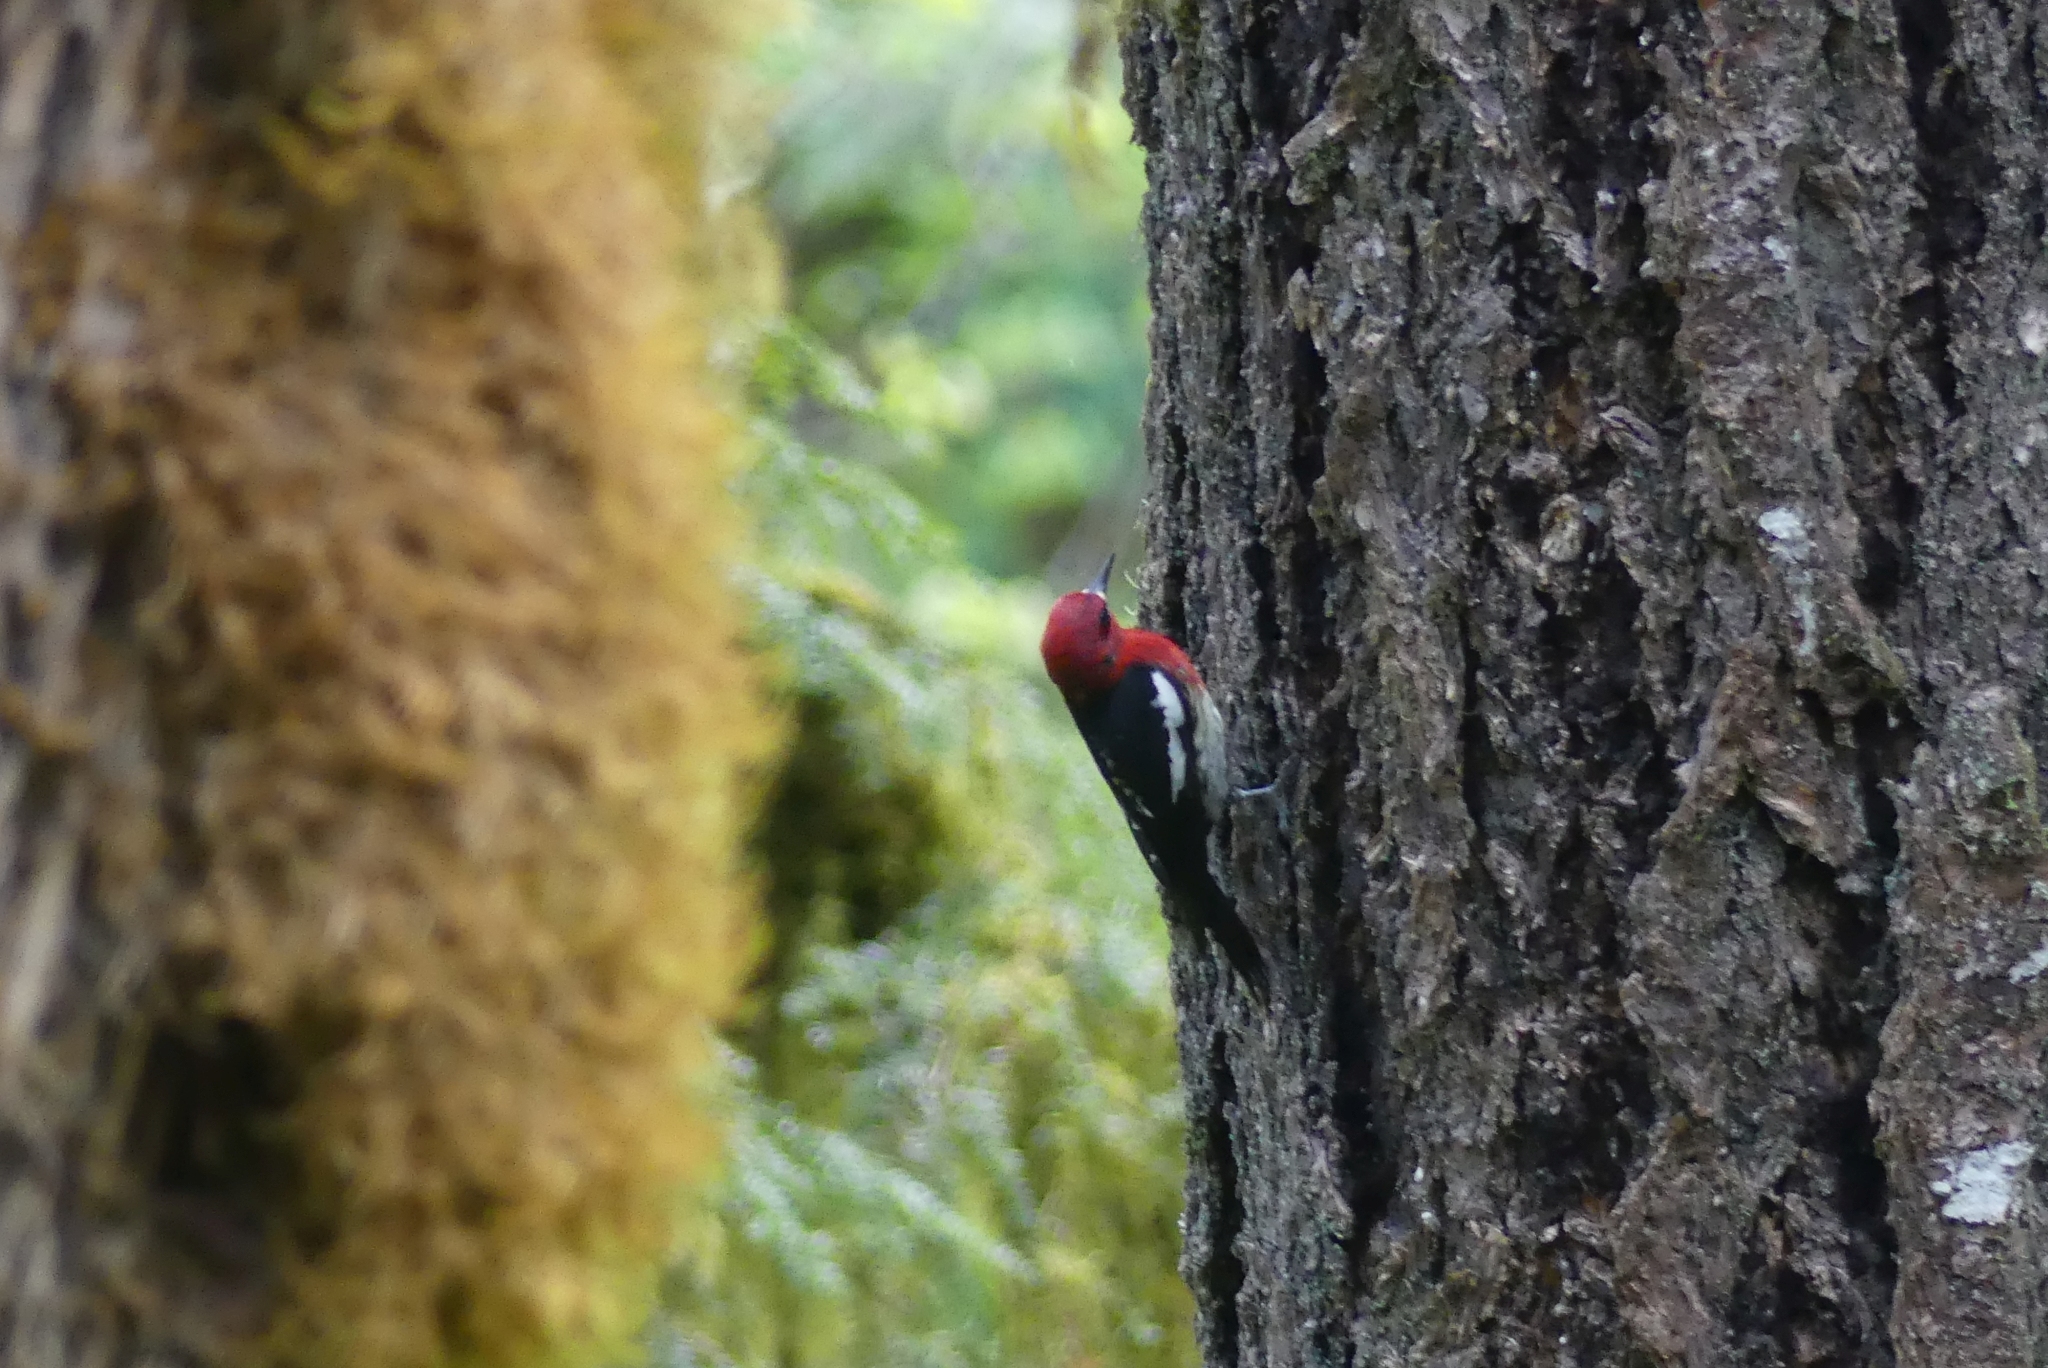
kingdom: Animalia
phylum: Chordata
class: Aves
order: Piciformes
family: Picidae
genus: Sphyrapicus
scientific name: Sphyrapicus ruber
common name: Red-breasted sapsucker
